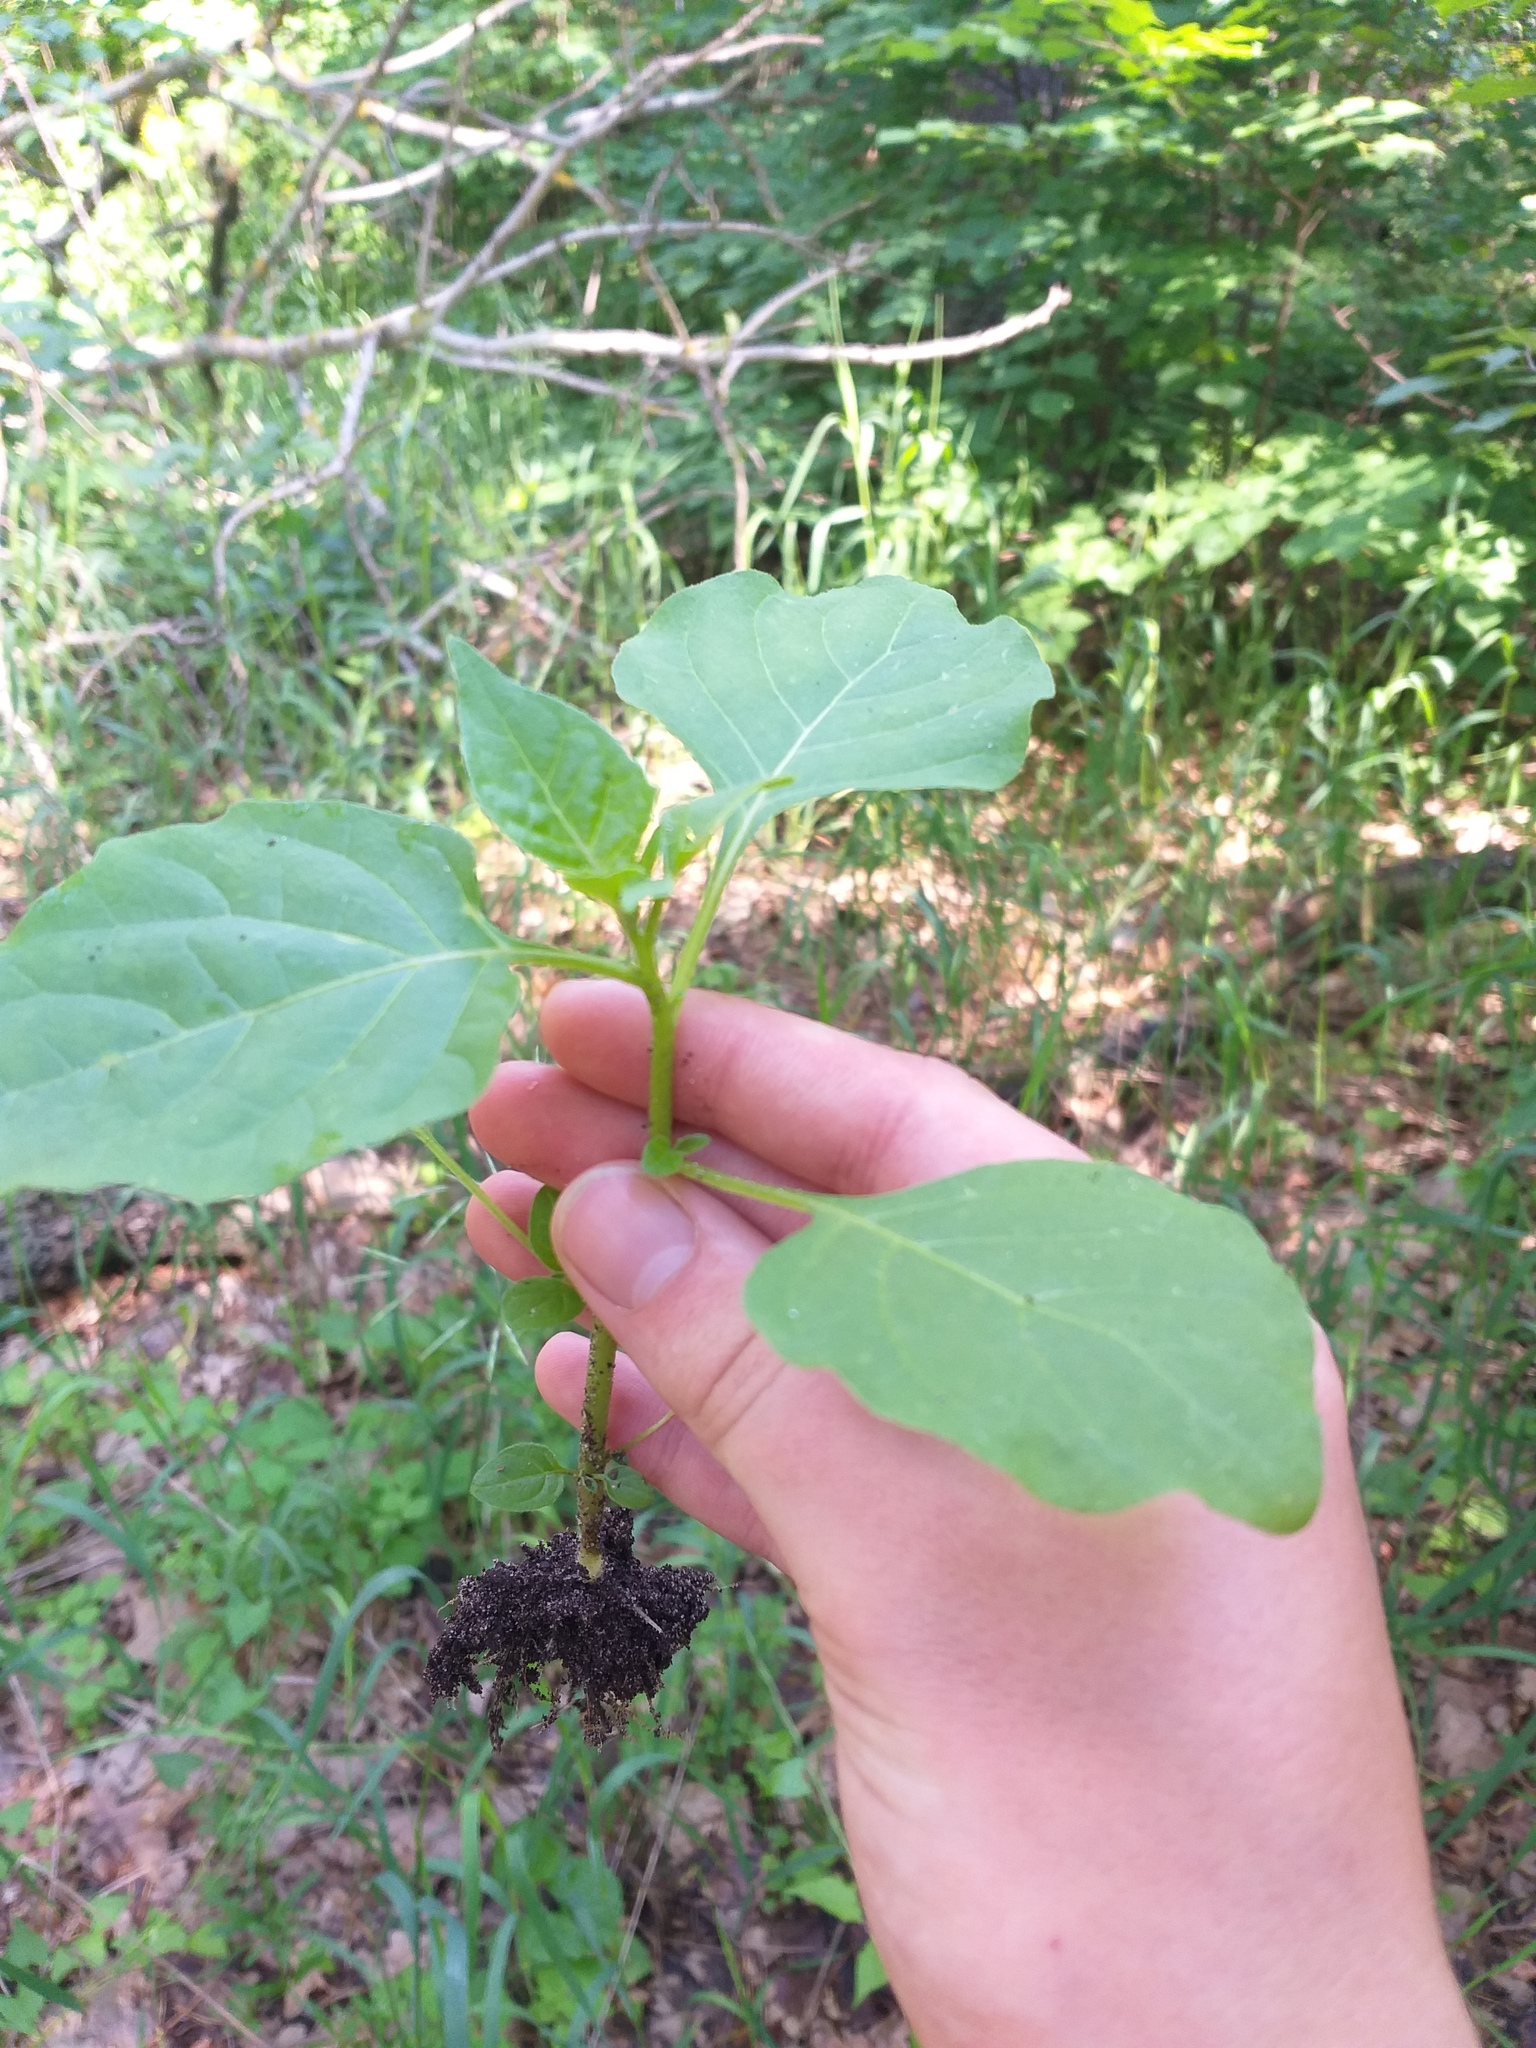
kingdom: Plantae
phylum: Tracheophyta
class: Magnoliopsida
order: Solanales
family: Solanaceae
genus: Solanum
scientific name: Solanum nigrum
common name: Black nightshade
